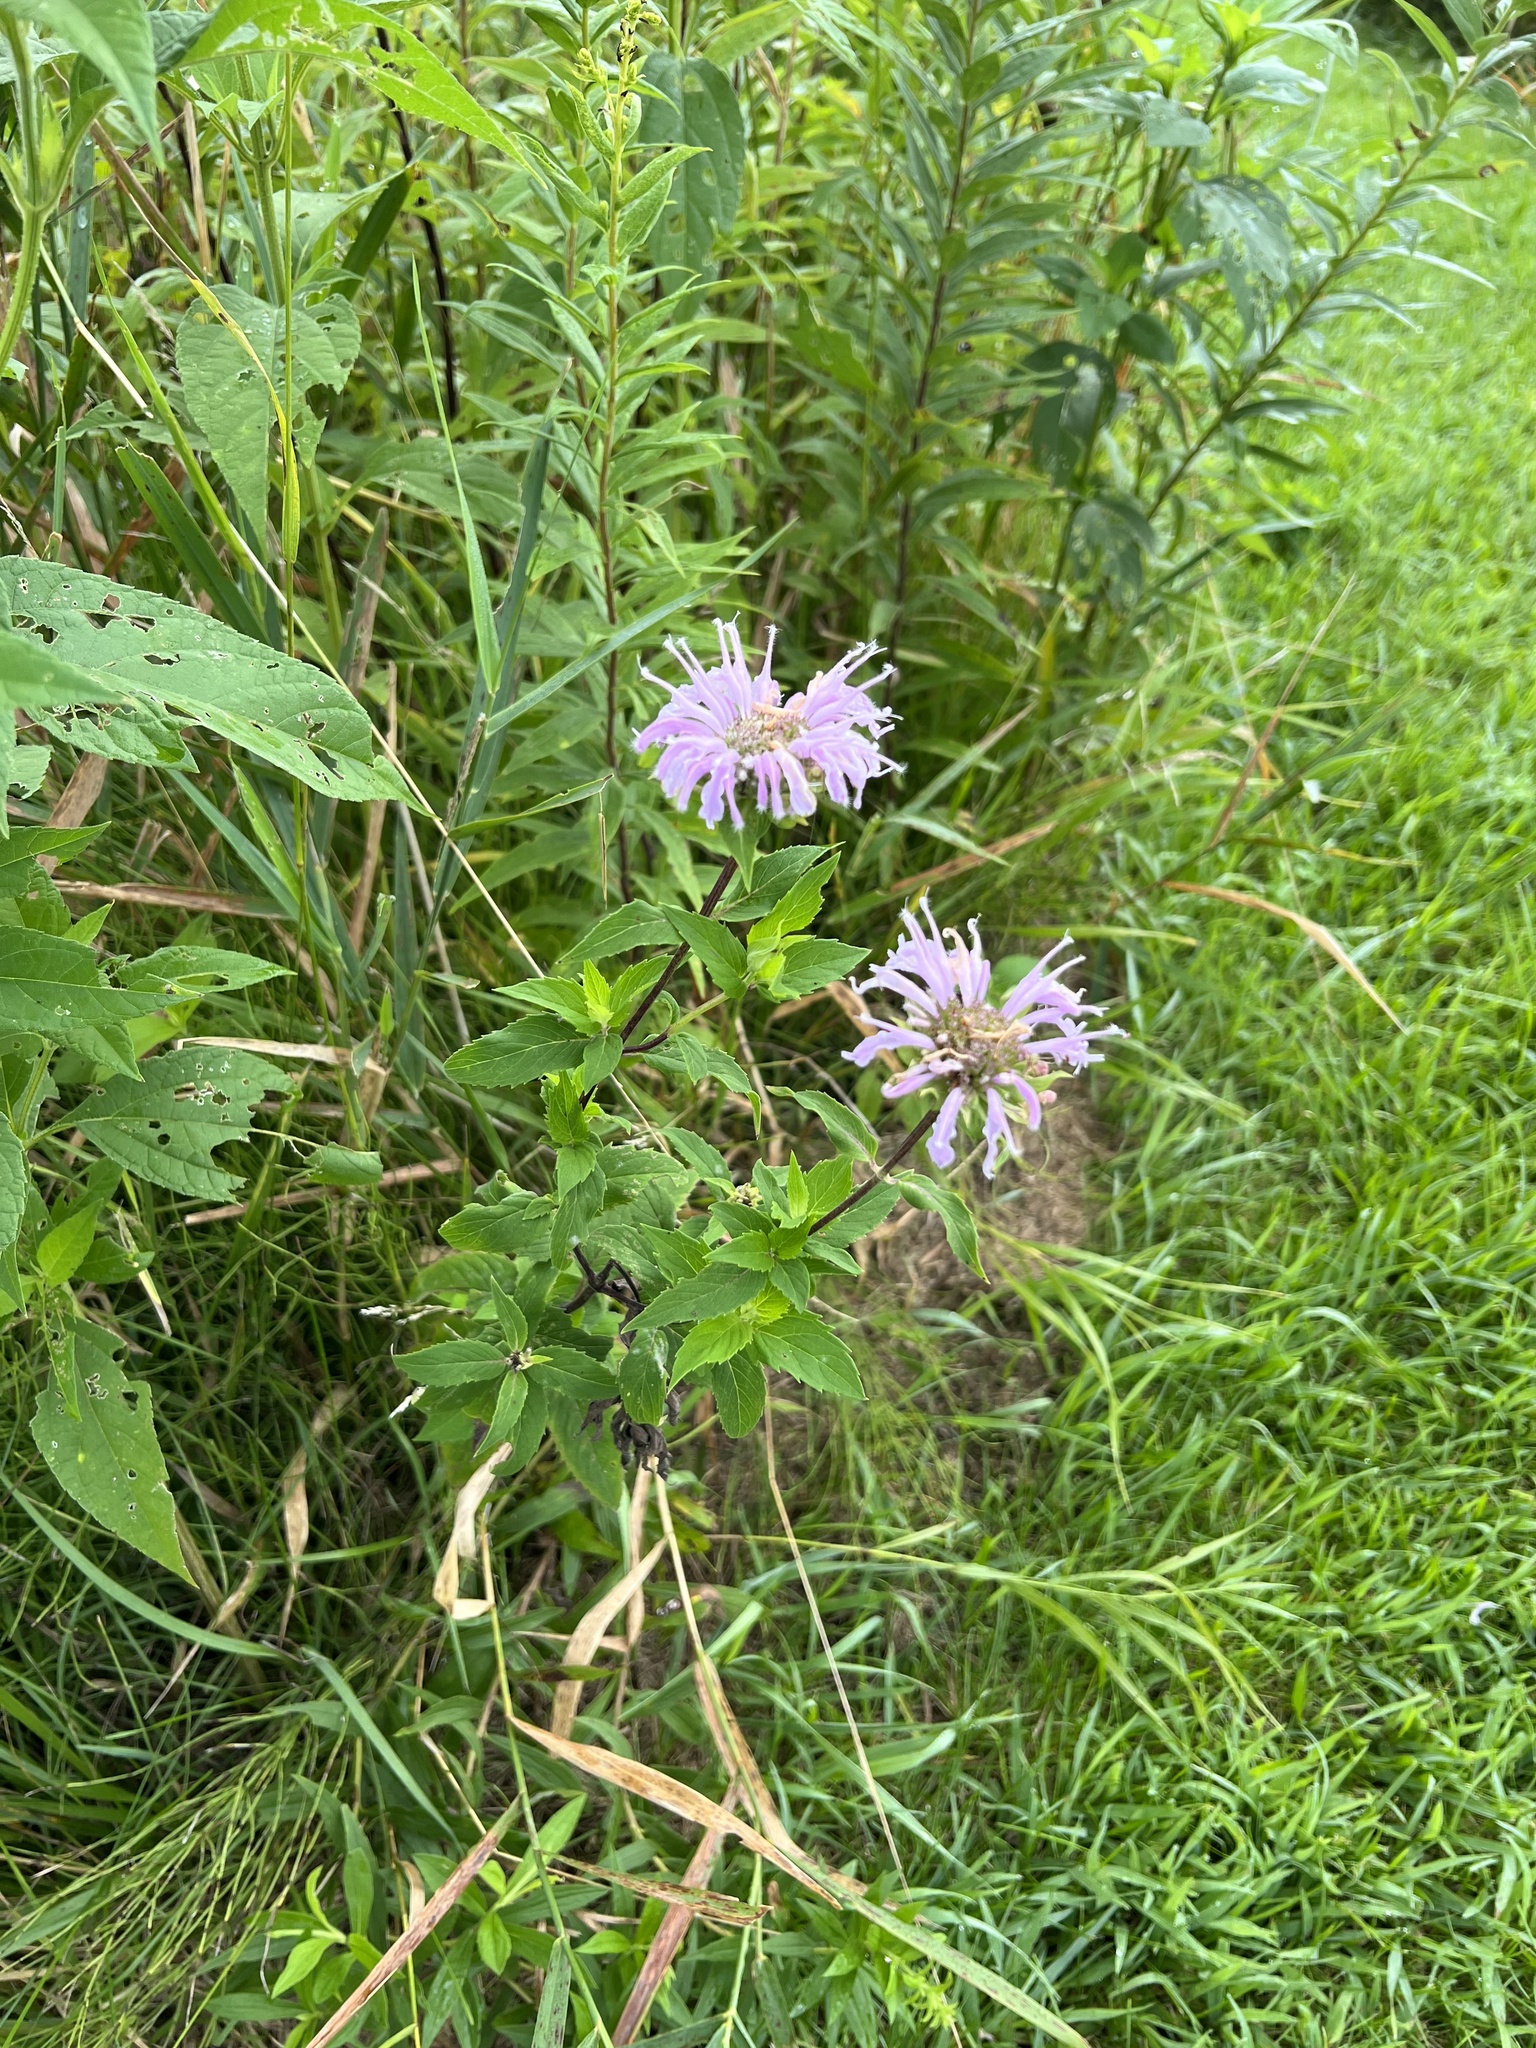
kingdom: Plantae
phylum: Tracheophyta
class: Magnoliopsida
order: Lamiales
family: Lamiaceae
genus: Monarda
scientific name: Monarda fistulosa
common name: Purple beebalm
